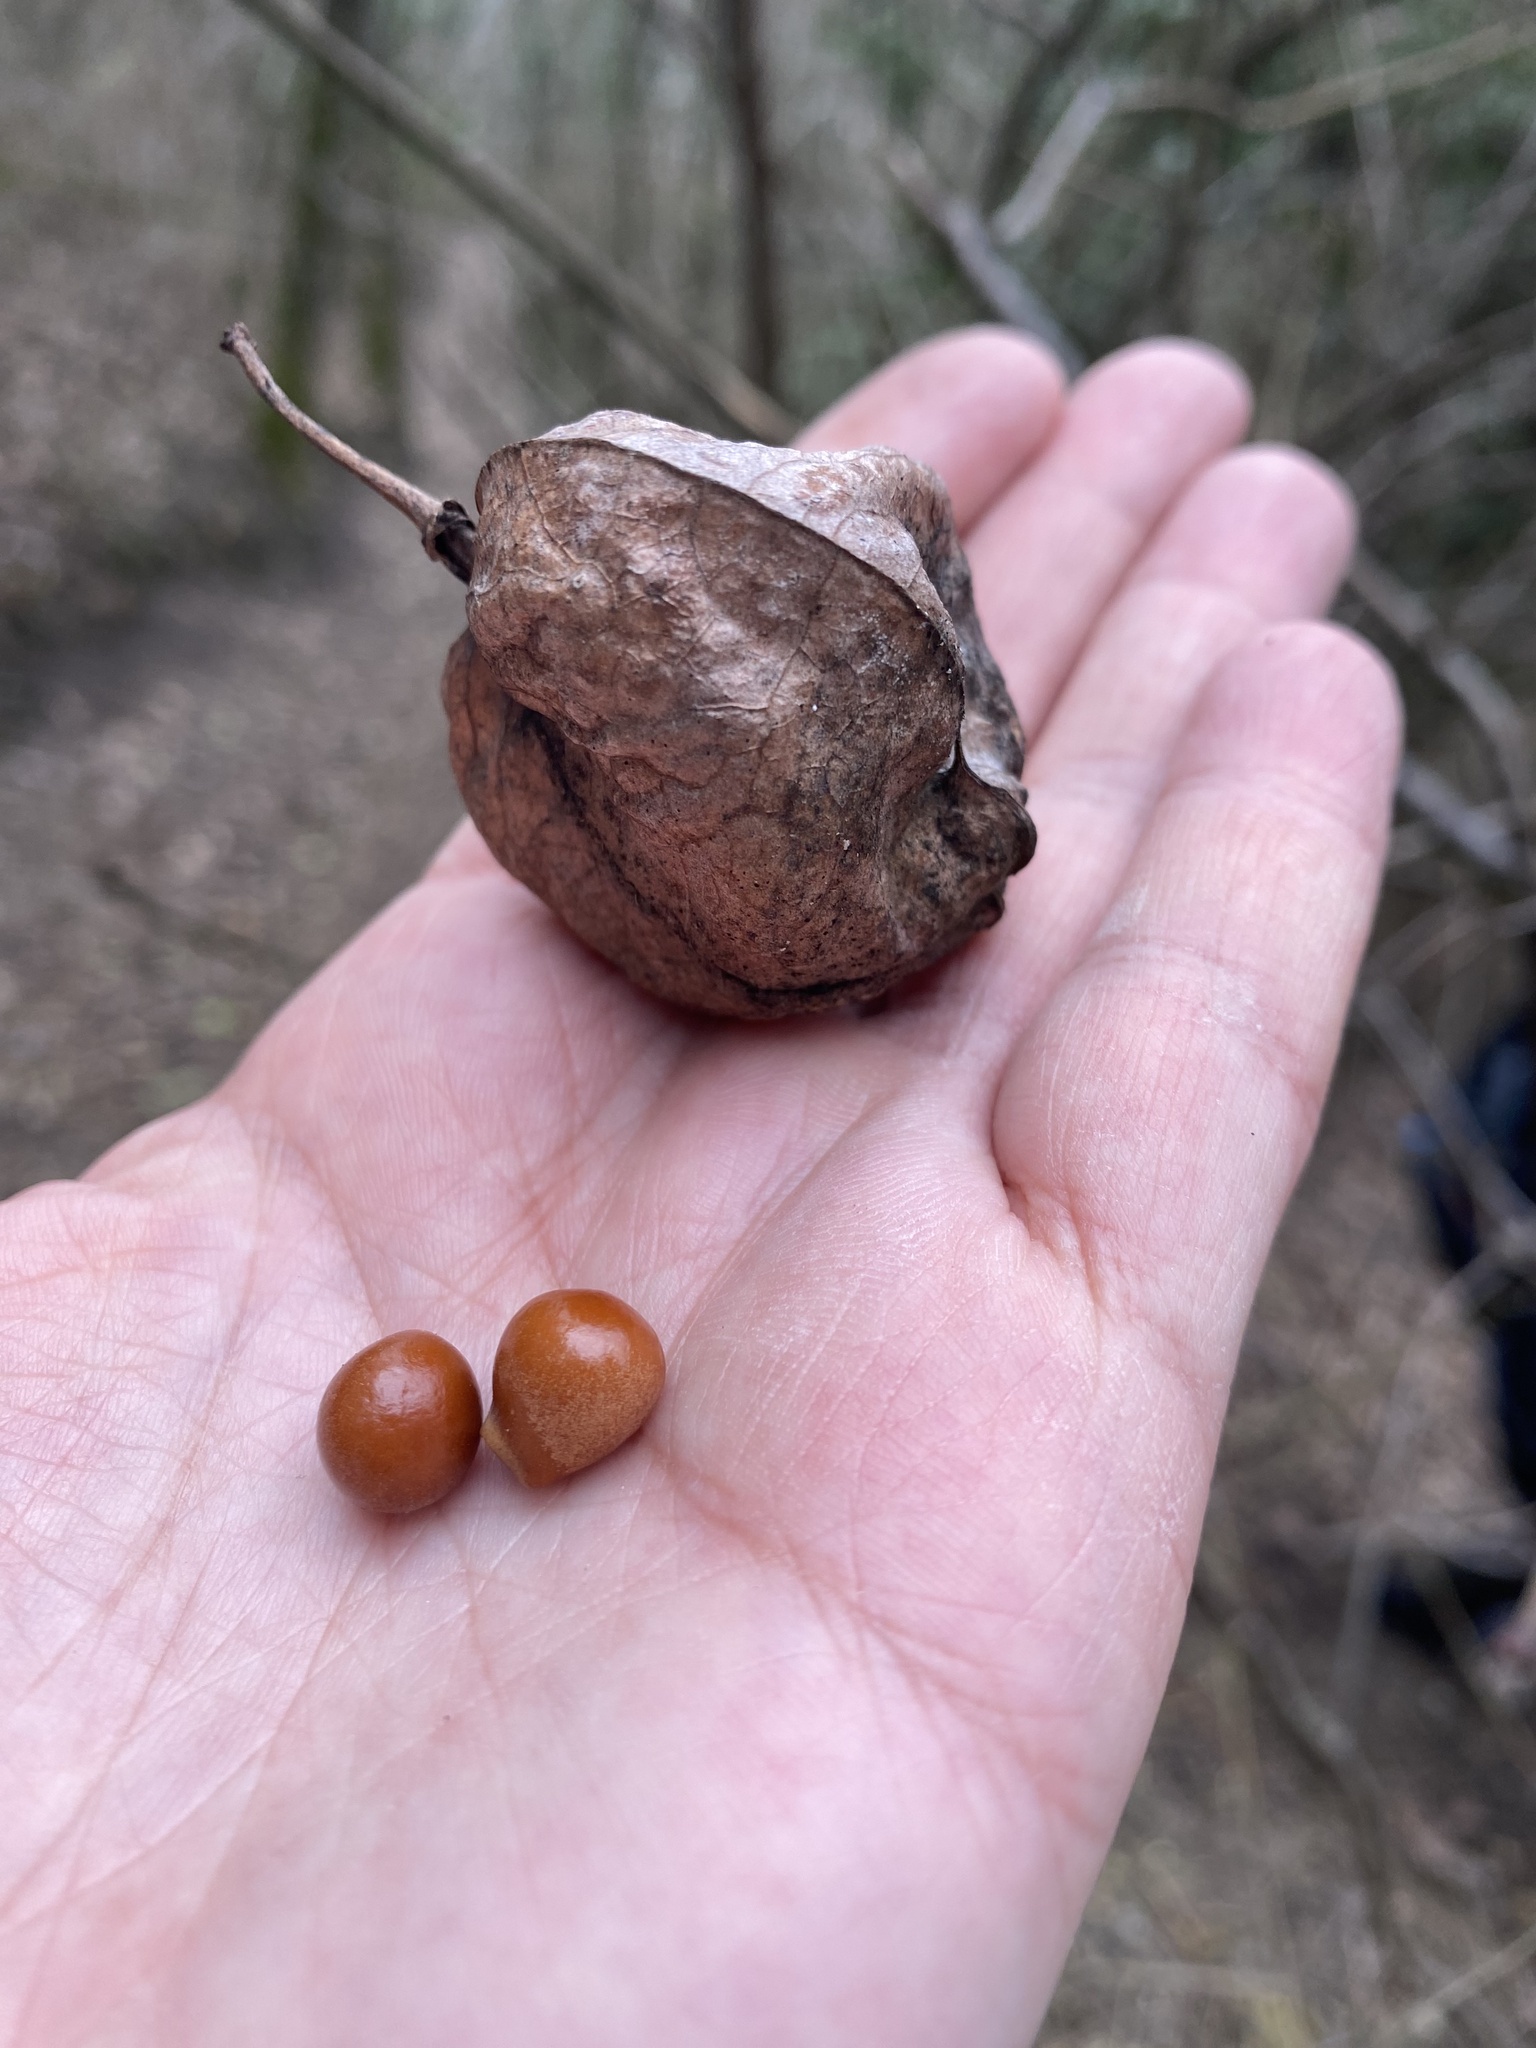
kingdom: Plantae
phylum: Tracheophyta
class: Magnoliopsida
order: Crossosomatales
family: Staphyleaceae
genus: Staphylea
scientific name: Staphylea pinnata
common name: Bladdernut
